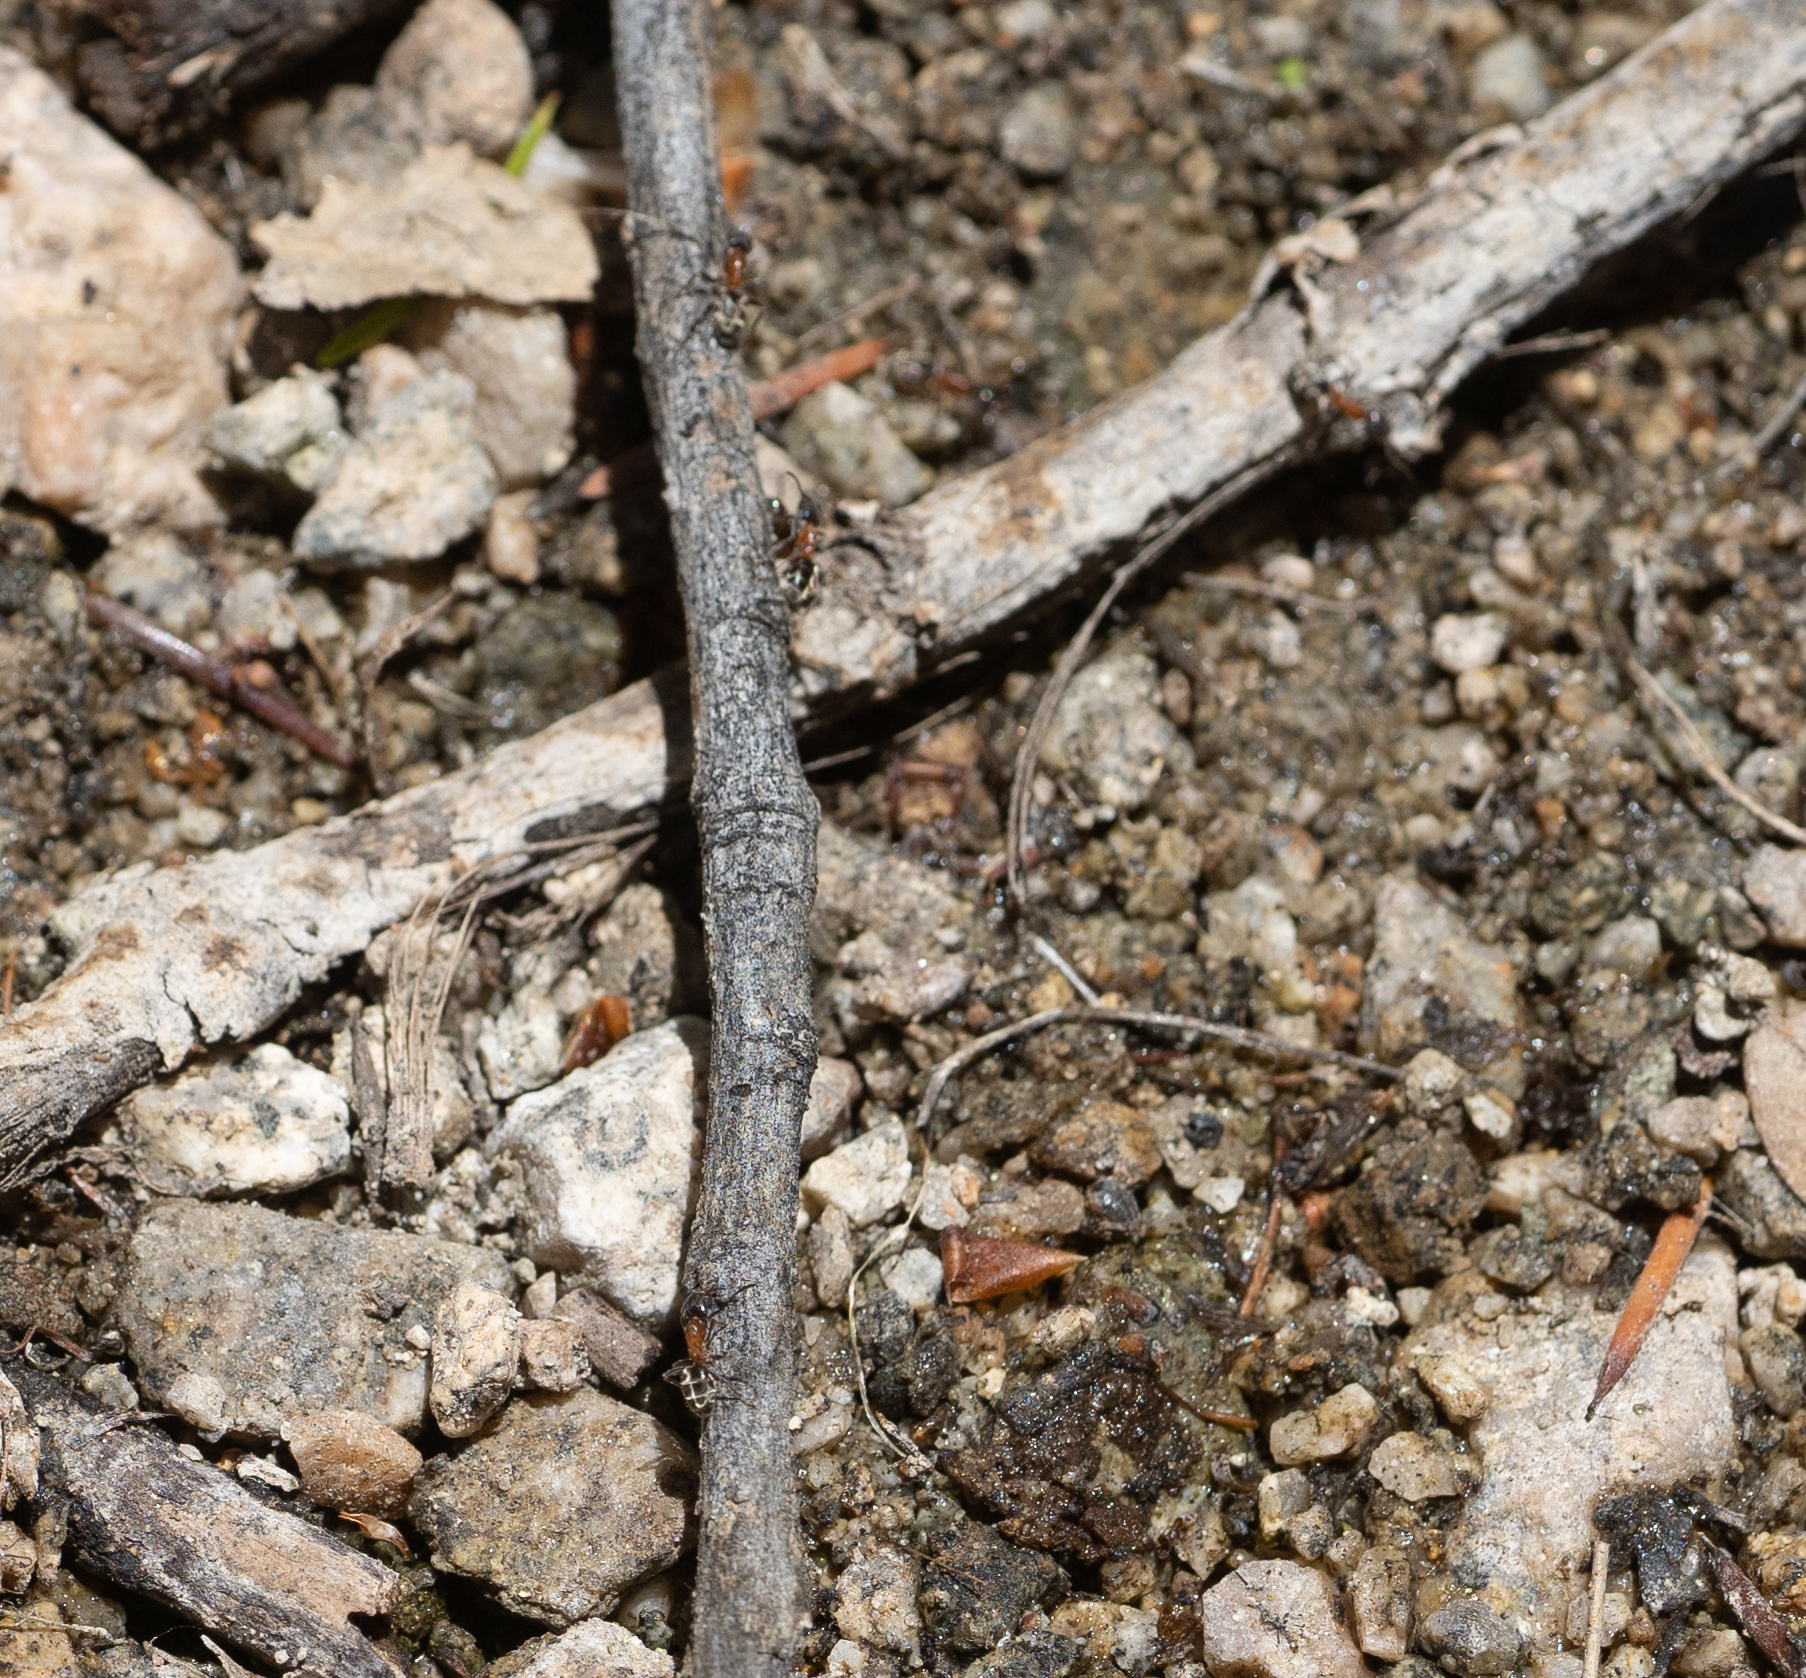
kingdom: Animalia
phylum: Arthropoda
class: Insecta
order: Hymenoptera
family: Formicidae
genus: Liometopum
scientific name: Liometopum occidentale
